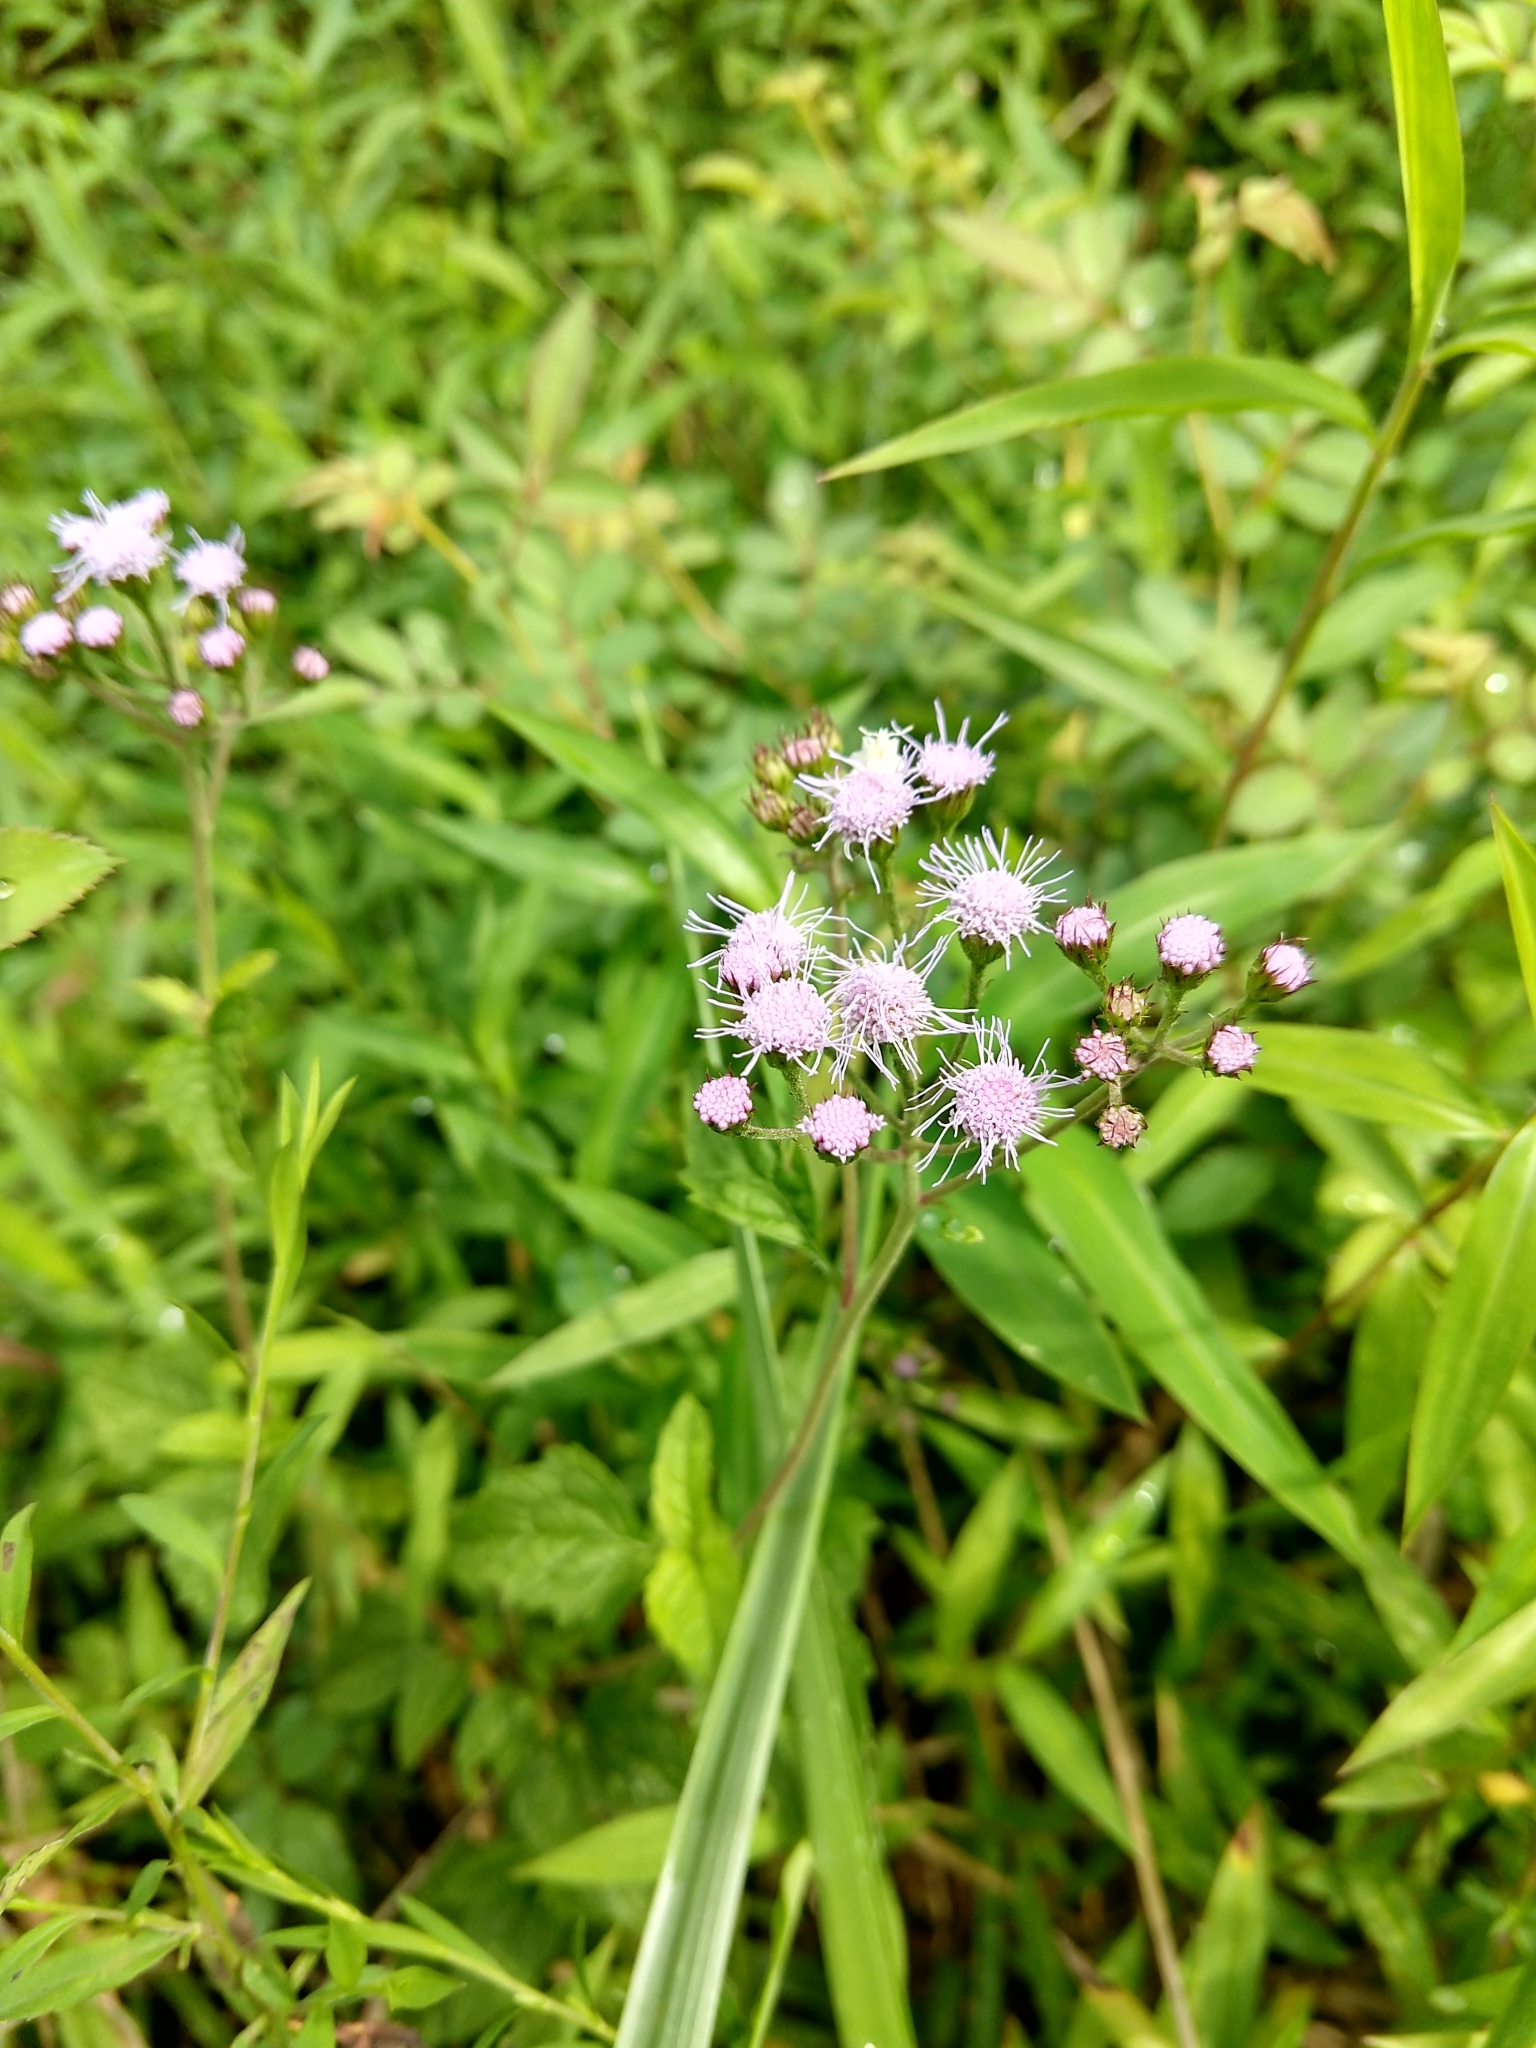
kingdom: Plantae
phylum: Tracheophyta
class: Magnoliopsida
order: Asterales
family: Asteraceae
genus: Conoclinium
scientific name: Conoclinium coelestinum
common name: Blue mistflower
